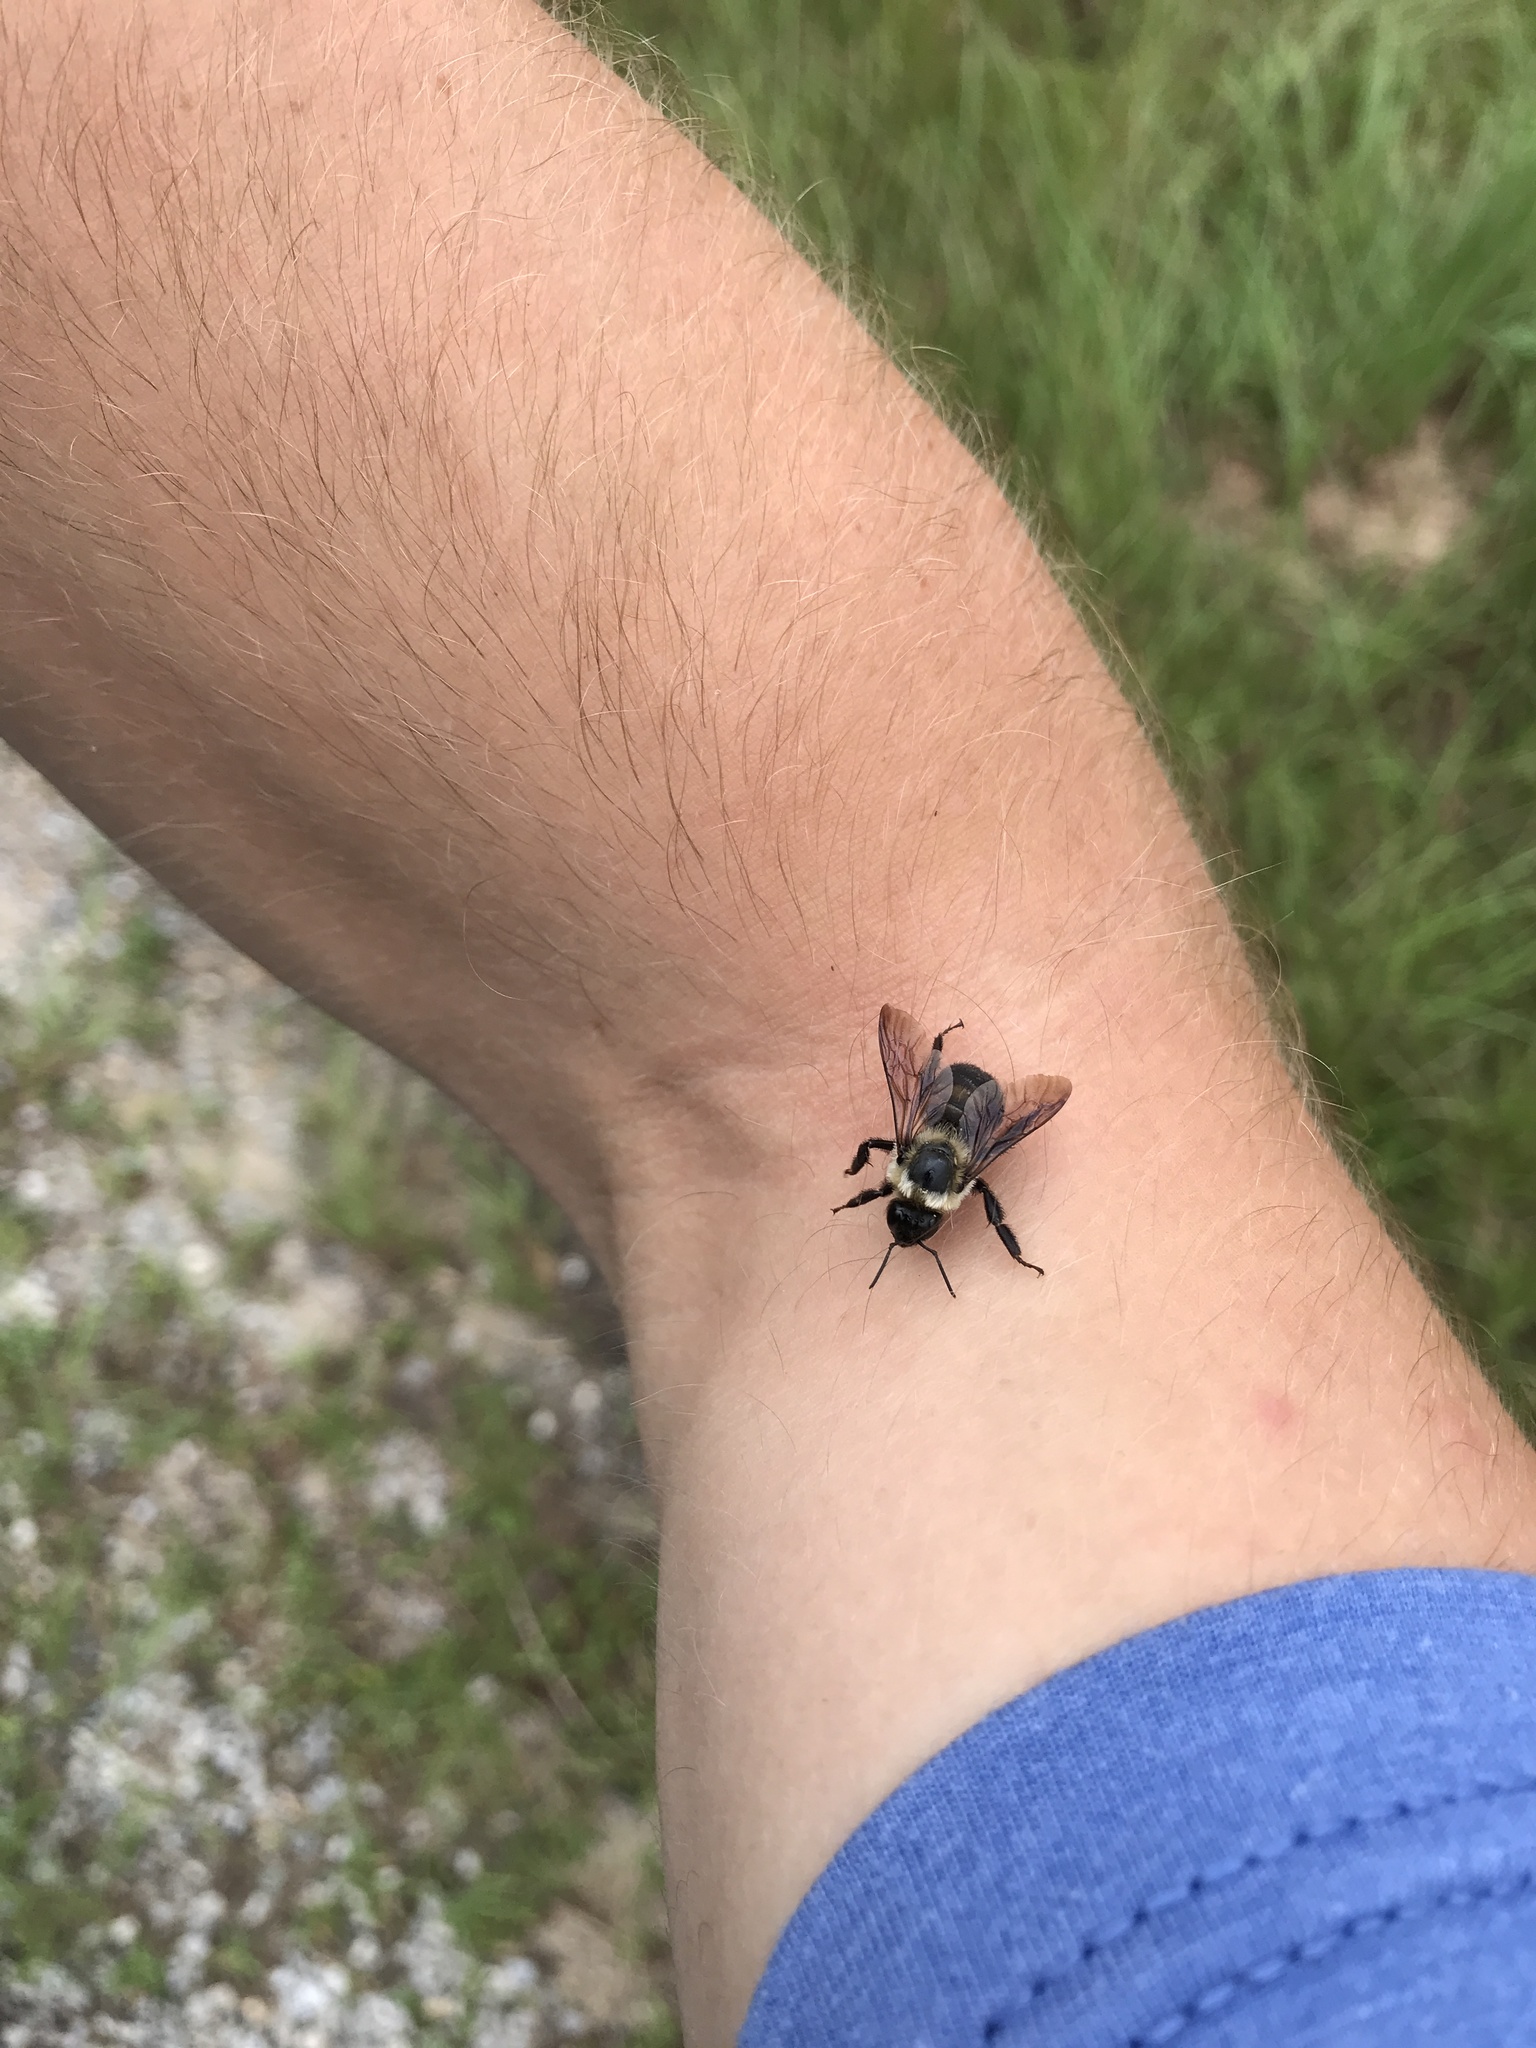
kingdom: Animalia
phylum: Arthropoda
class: Insecta
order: Hymenoptera
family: Apidae
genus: Bombus
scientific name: Bombus griseocollis
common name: Brown-belted bumble bee
